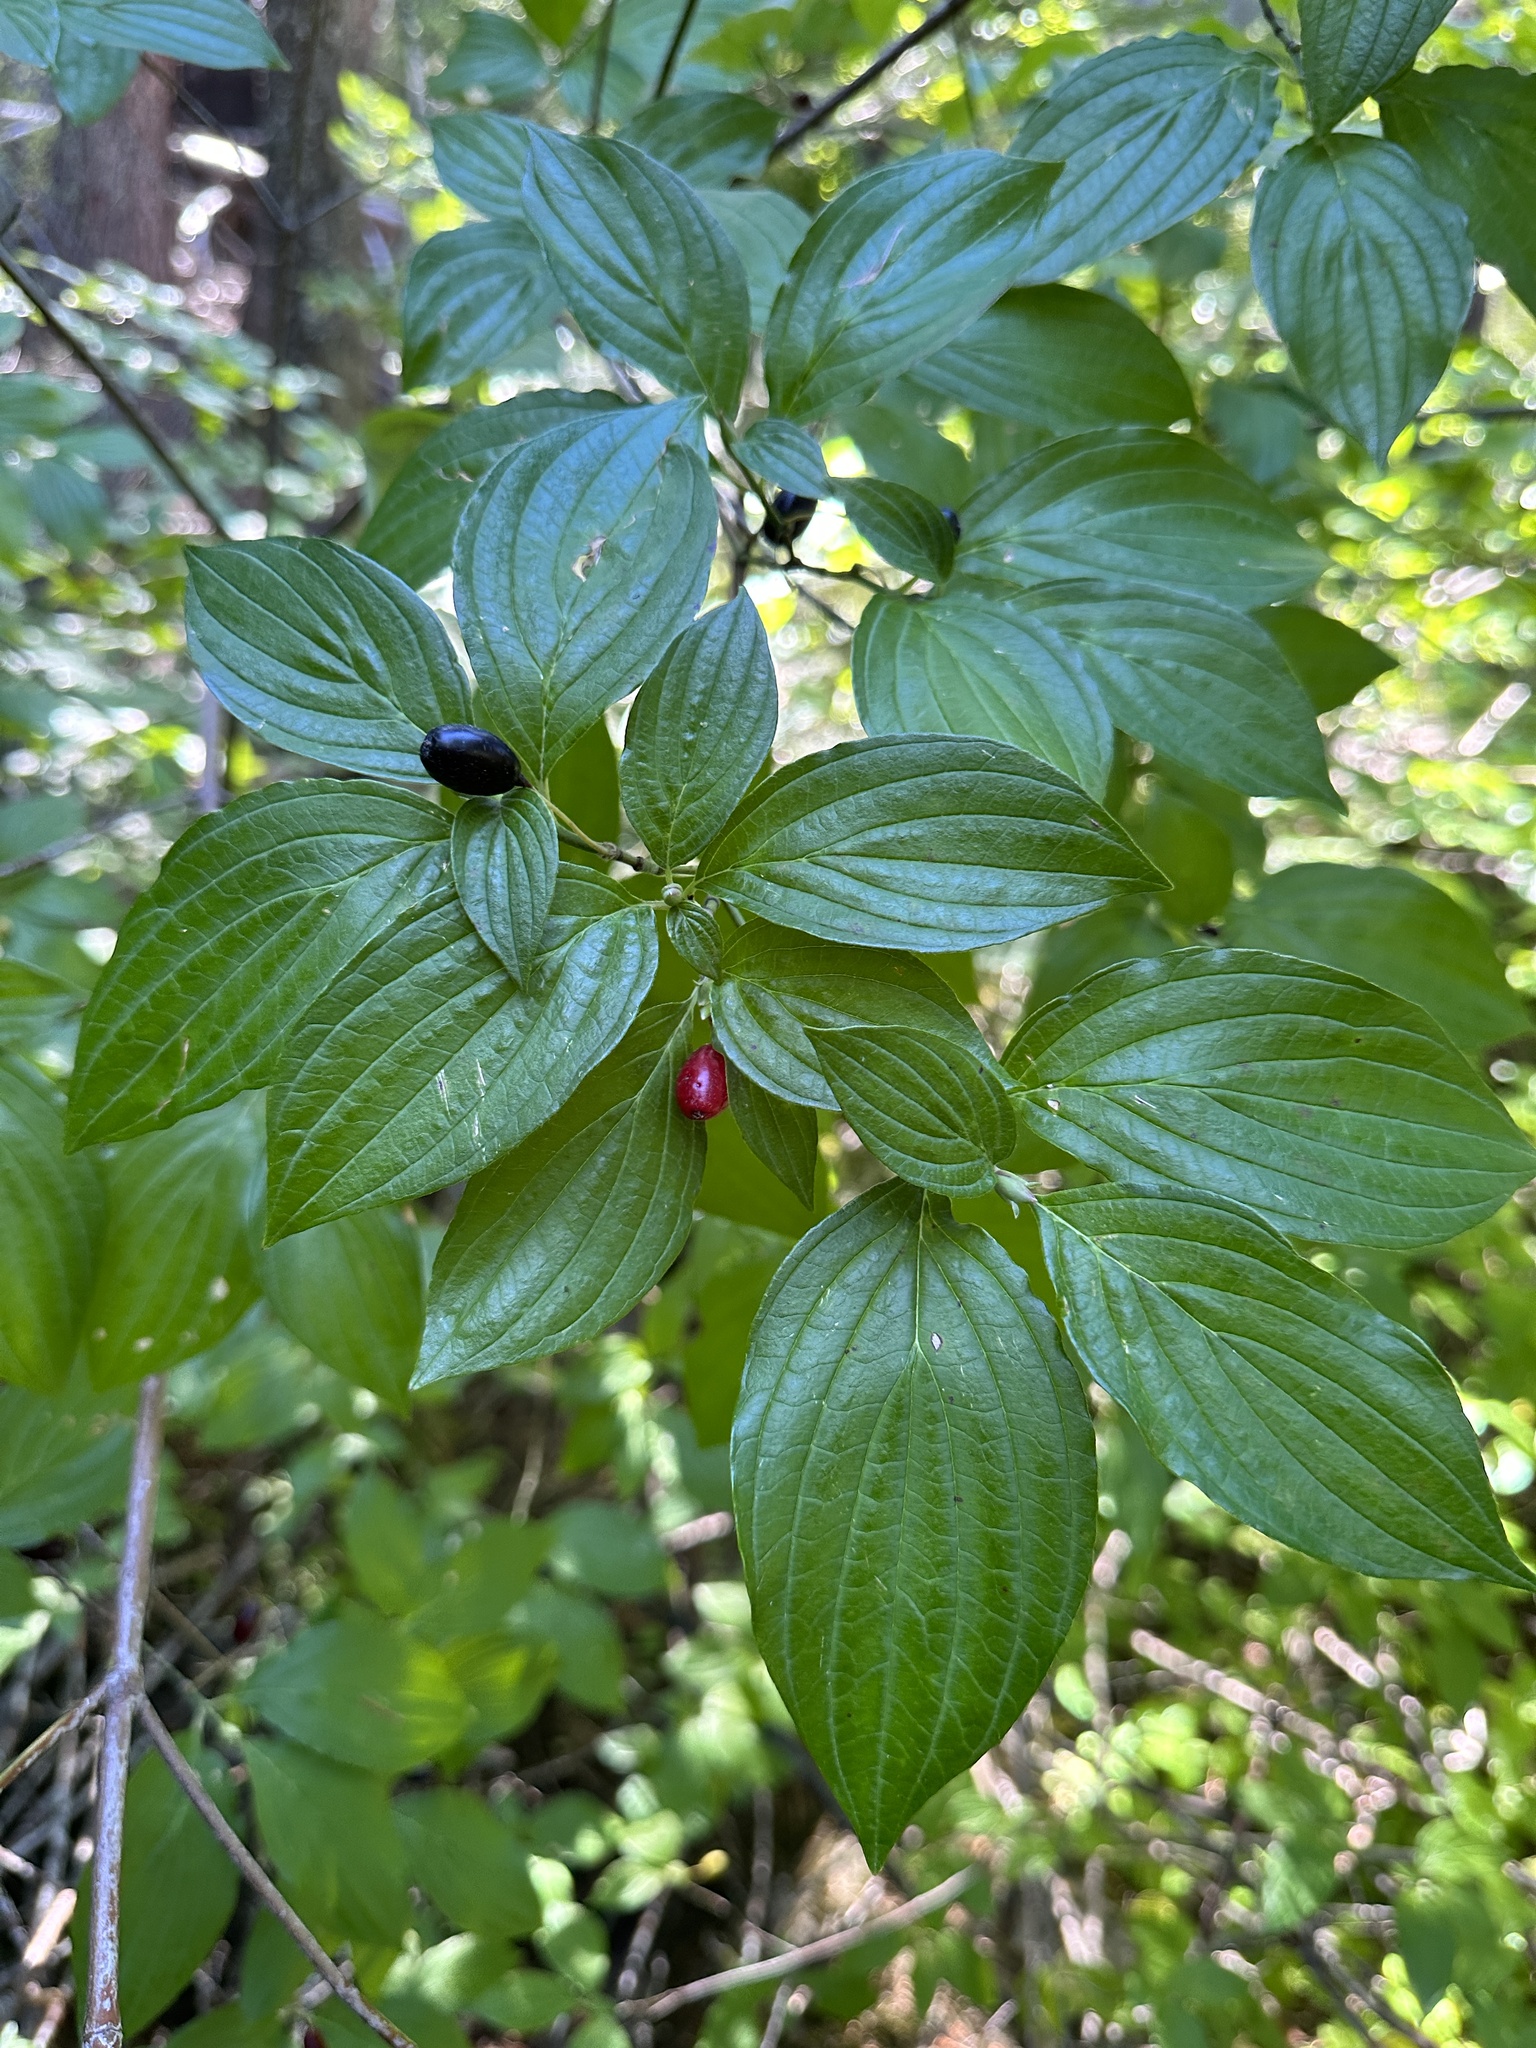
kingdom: Plantae
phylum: Tracheophyta
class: Magnoliopsida
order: Cornales
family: Cornaceae
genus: Cornus
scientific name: Cornus sessilis
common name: Blackfruit dogwood
